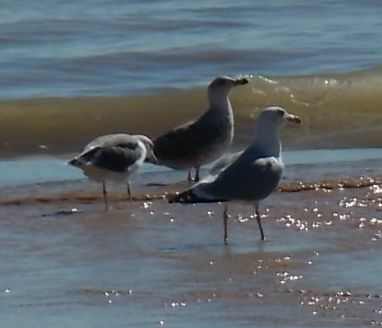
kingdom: Animalia
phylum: Chordata
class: Aves
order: Charadriiformes
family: Laridae
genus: Larus
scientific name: Larus michahellis
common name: Yellow-legged gull
